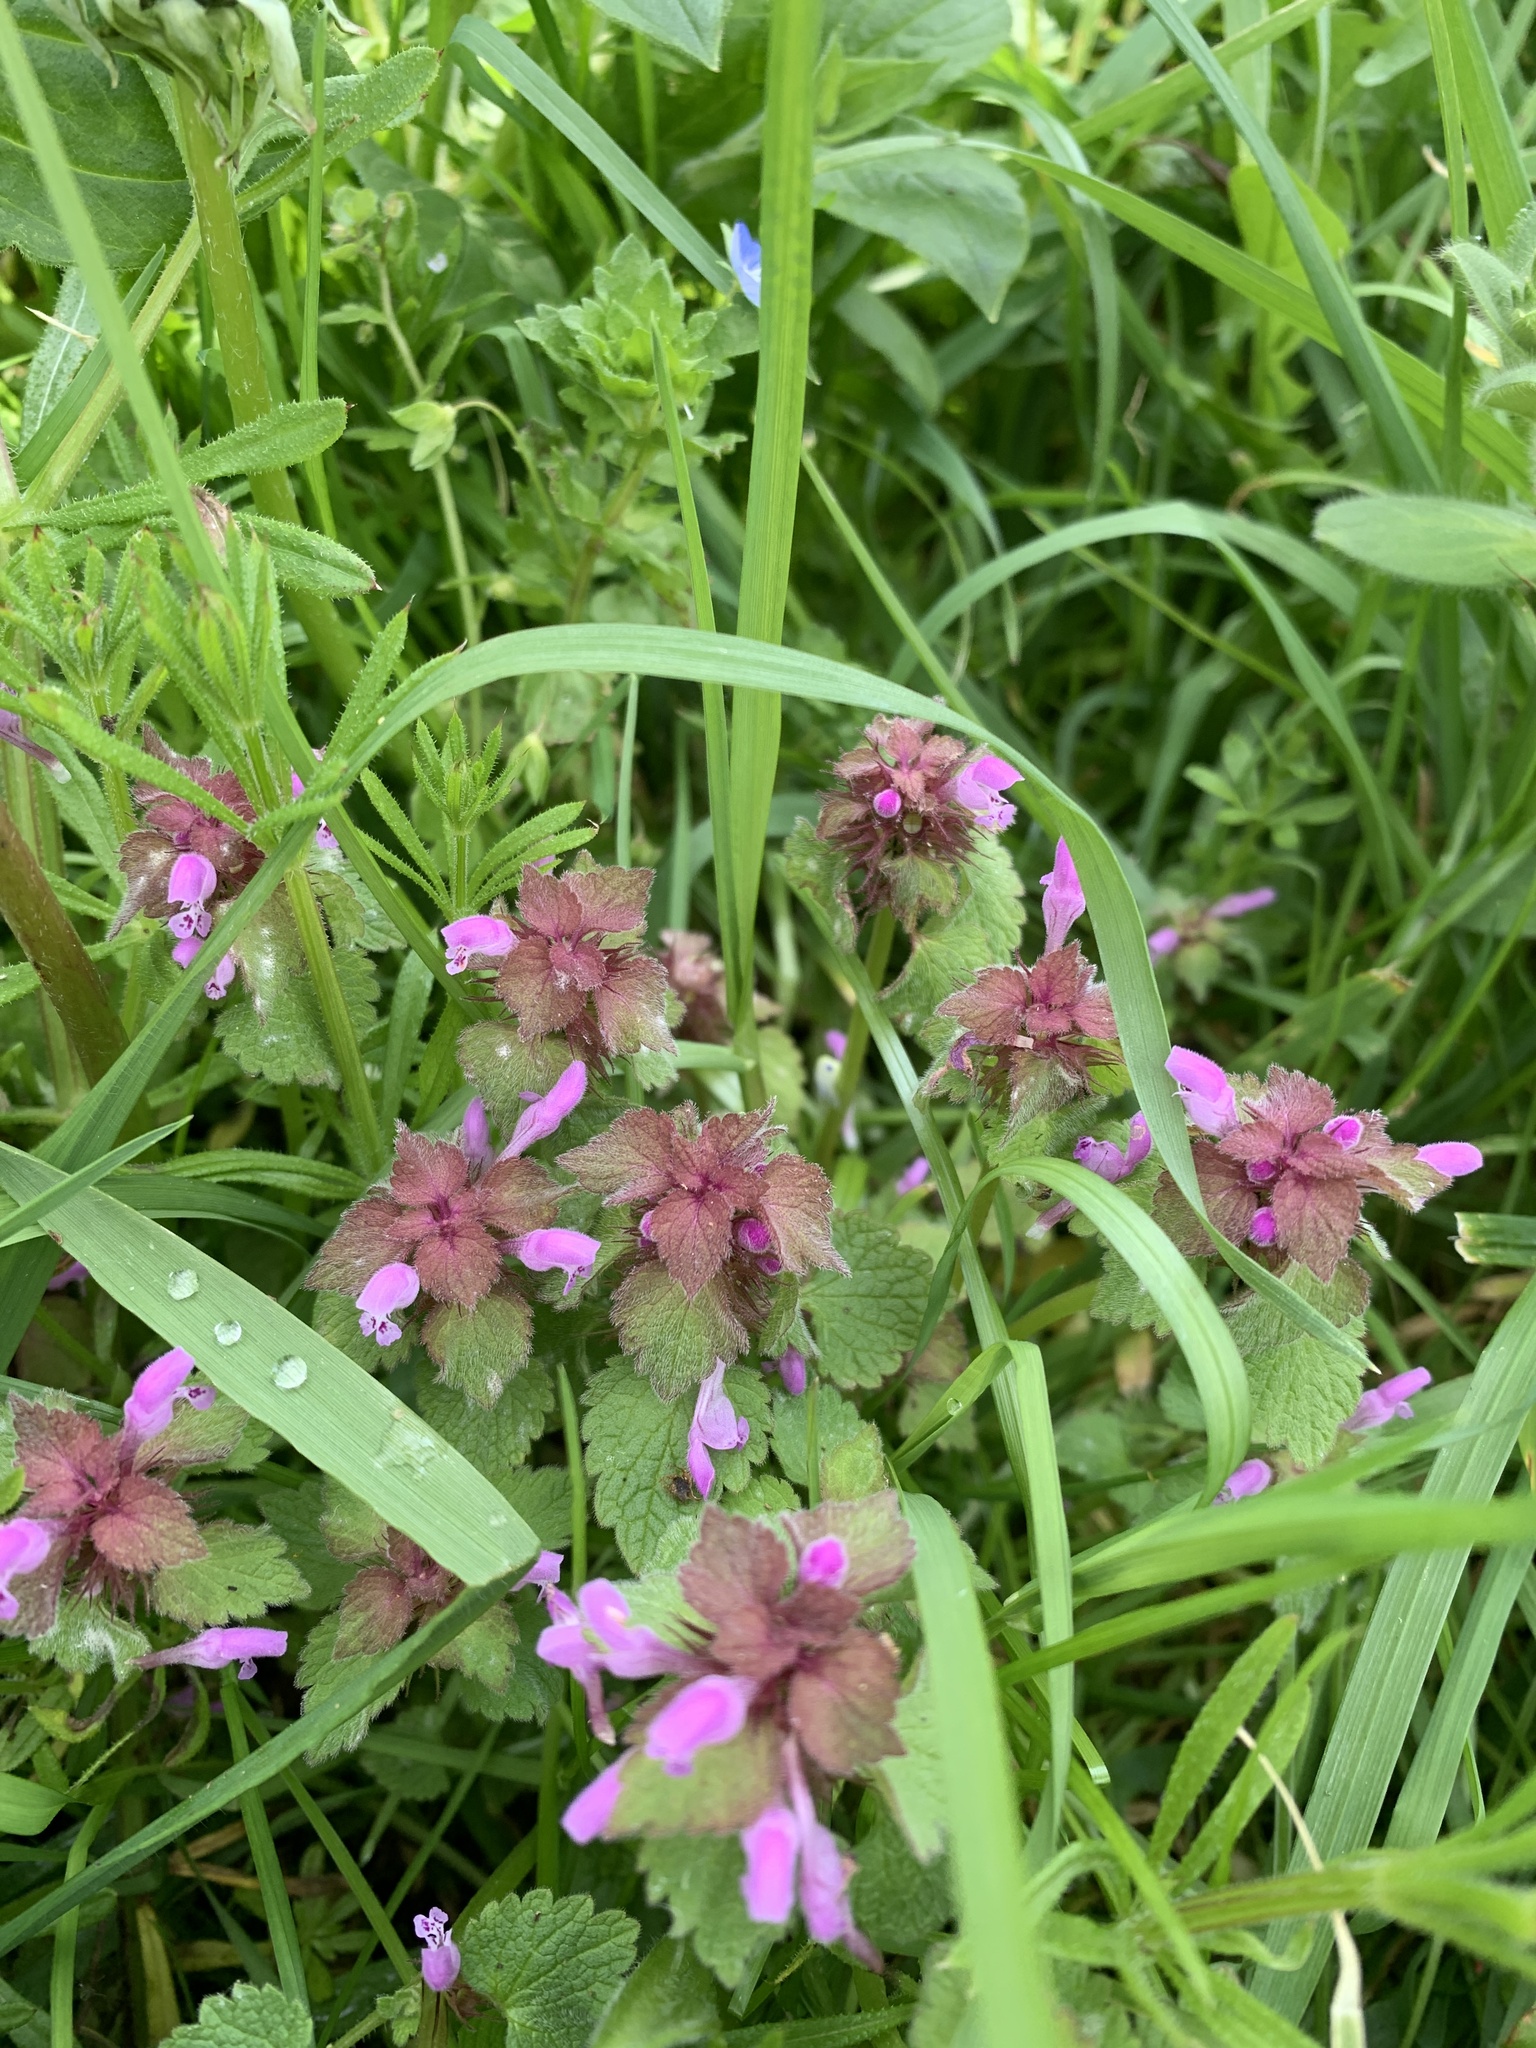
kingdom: Plantae
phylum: Tracheophyta
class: Magnoliopsida
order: Lamiales
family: Lamiaceae
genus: Lamium
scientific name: Lamium purpureum
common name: Red dead-nettle
